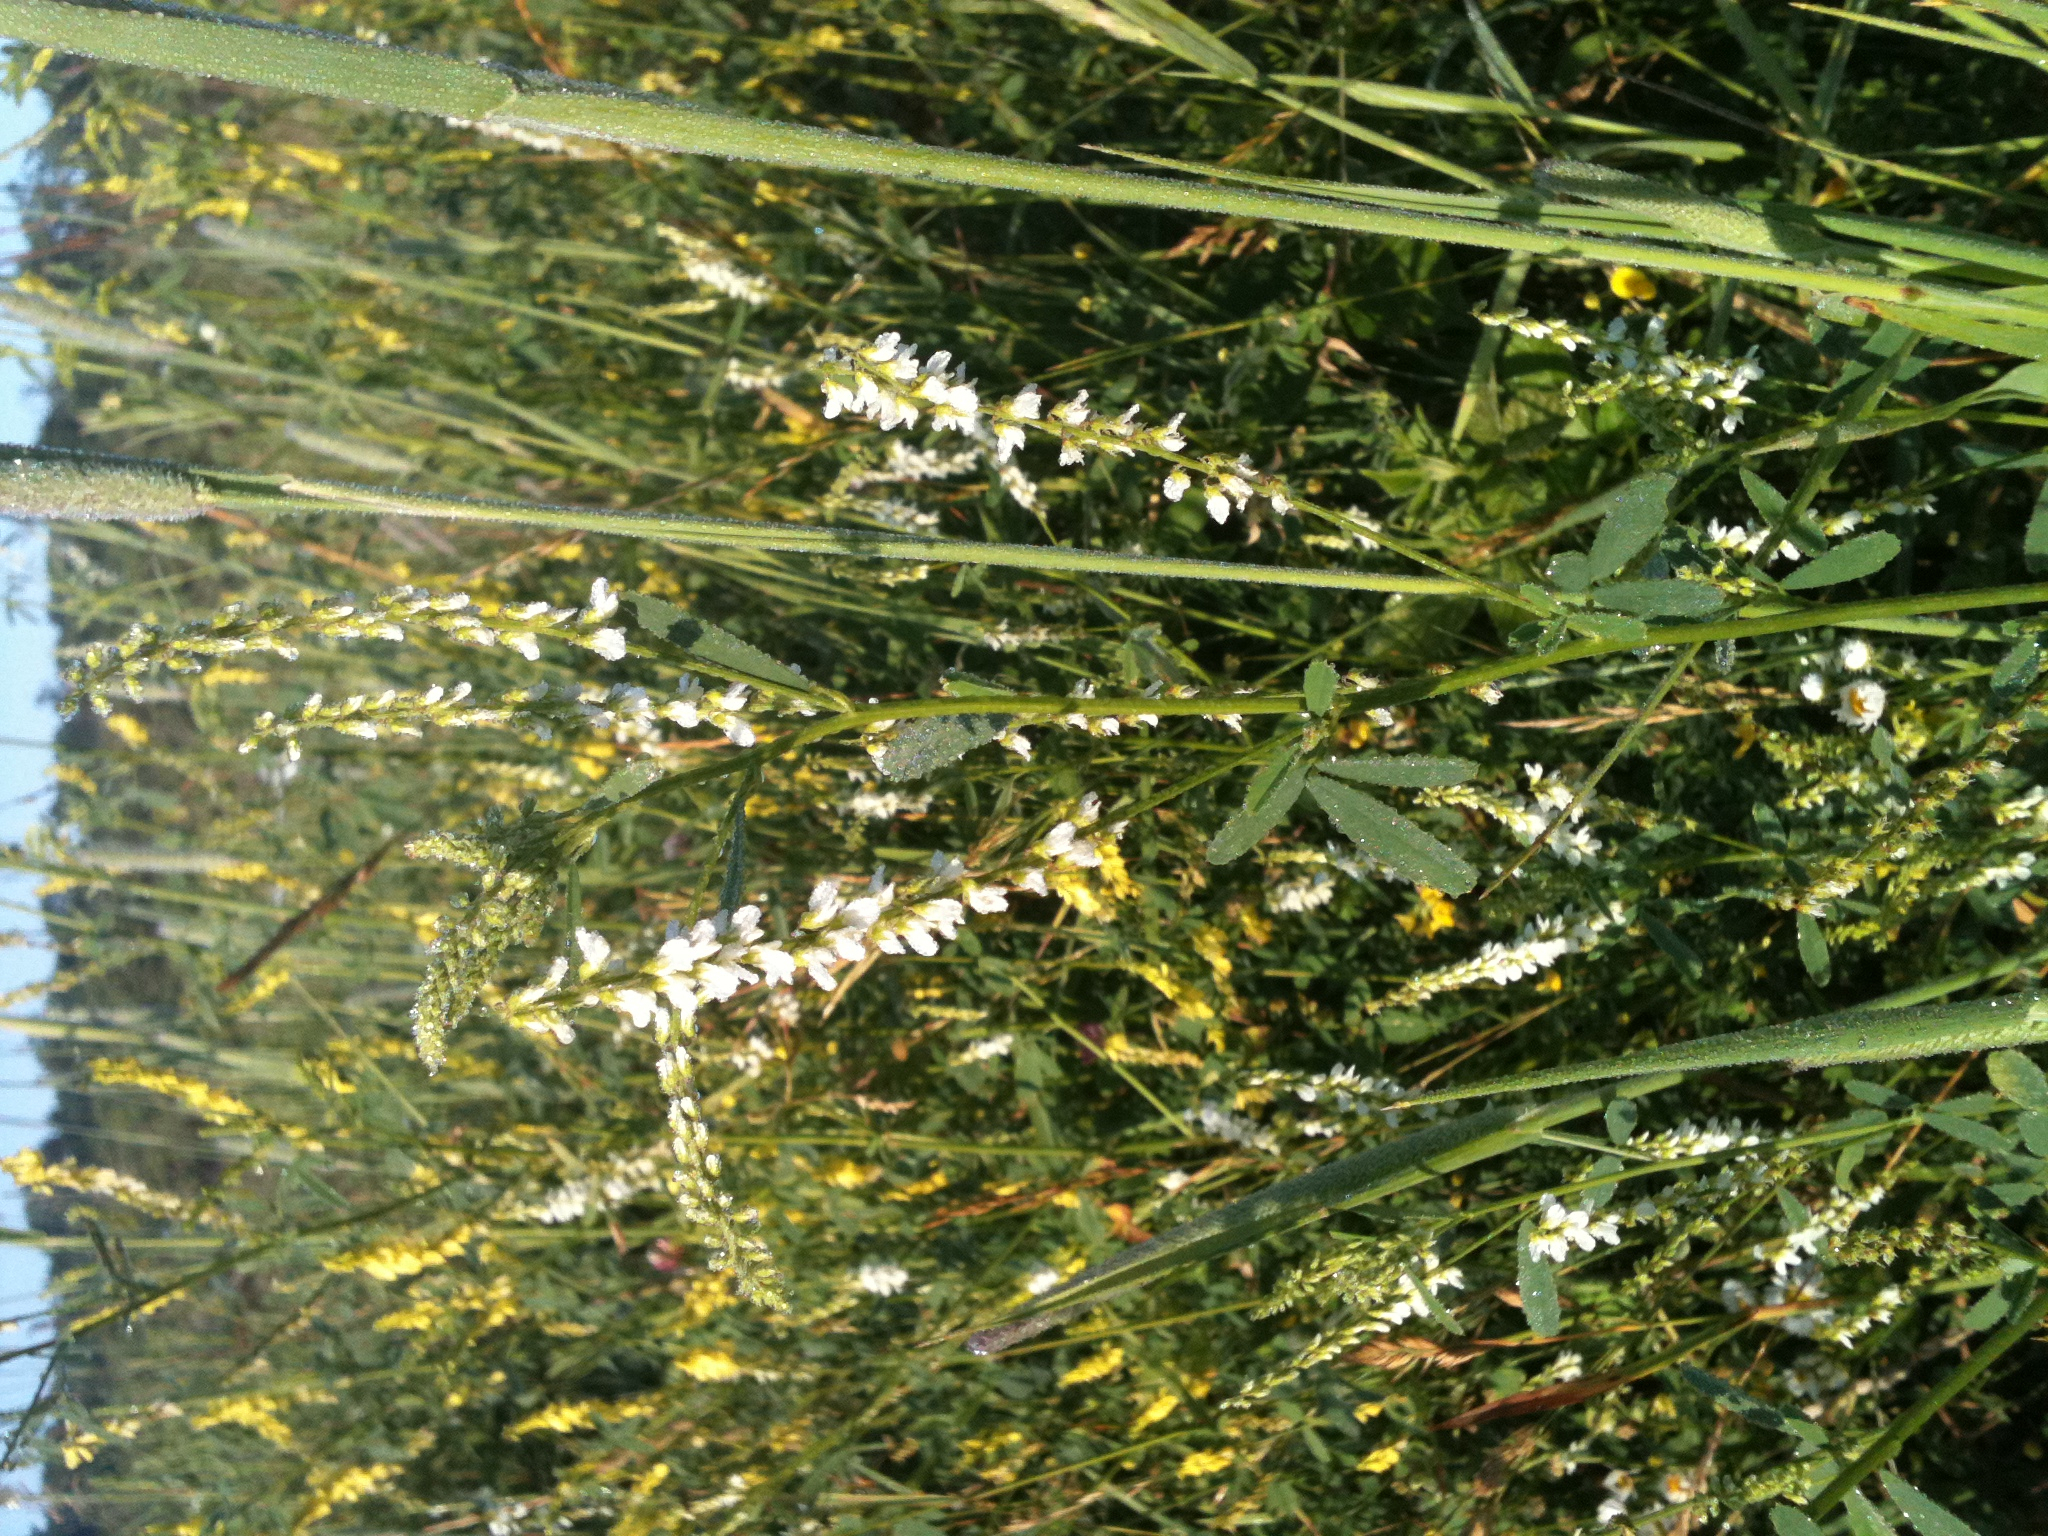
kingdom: Plantae
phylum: Tracheophyta
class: Magnoliopsida
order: Fabales
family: Fabaceae
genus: Melilotus
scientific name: Melilotus albus
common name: White melilot
